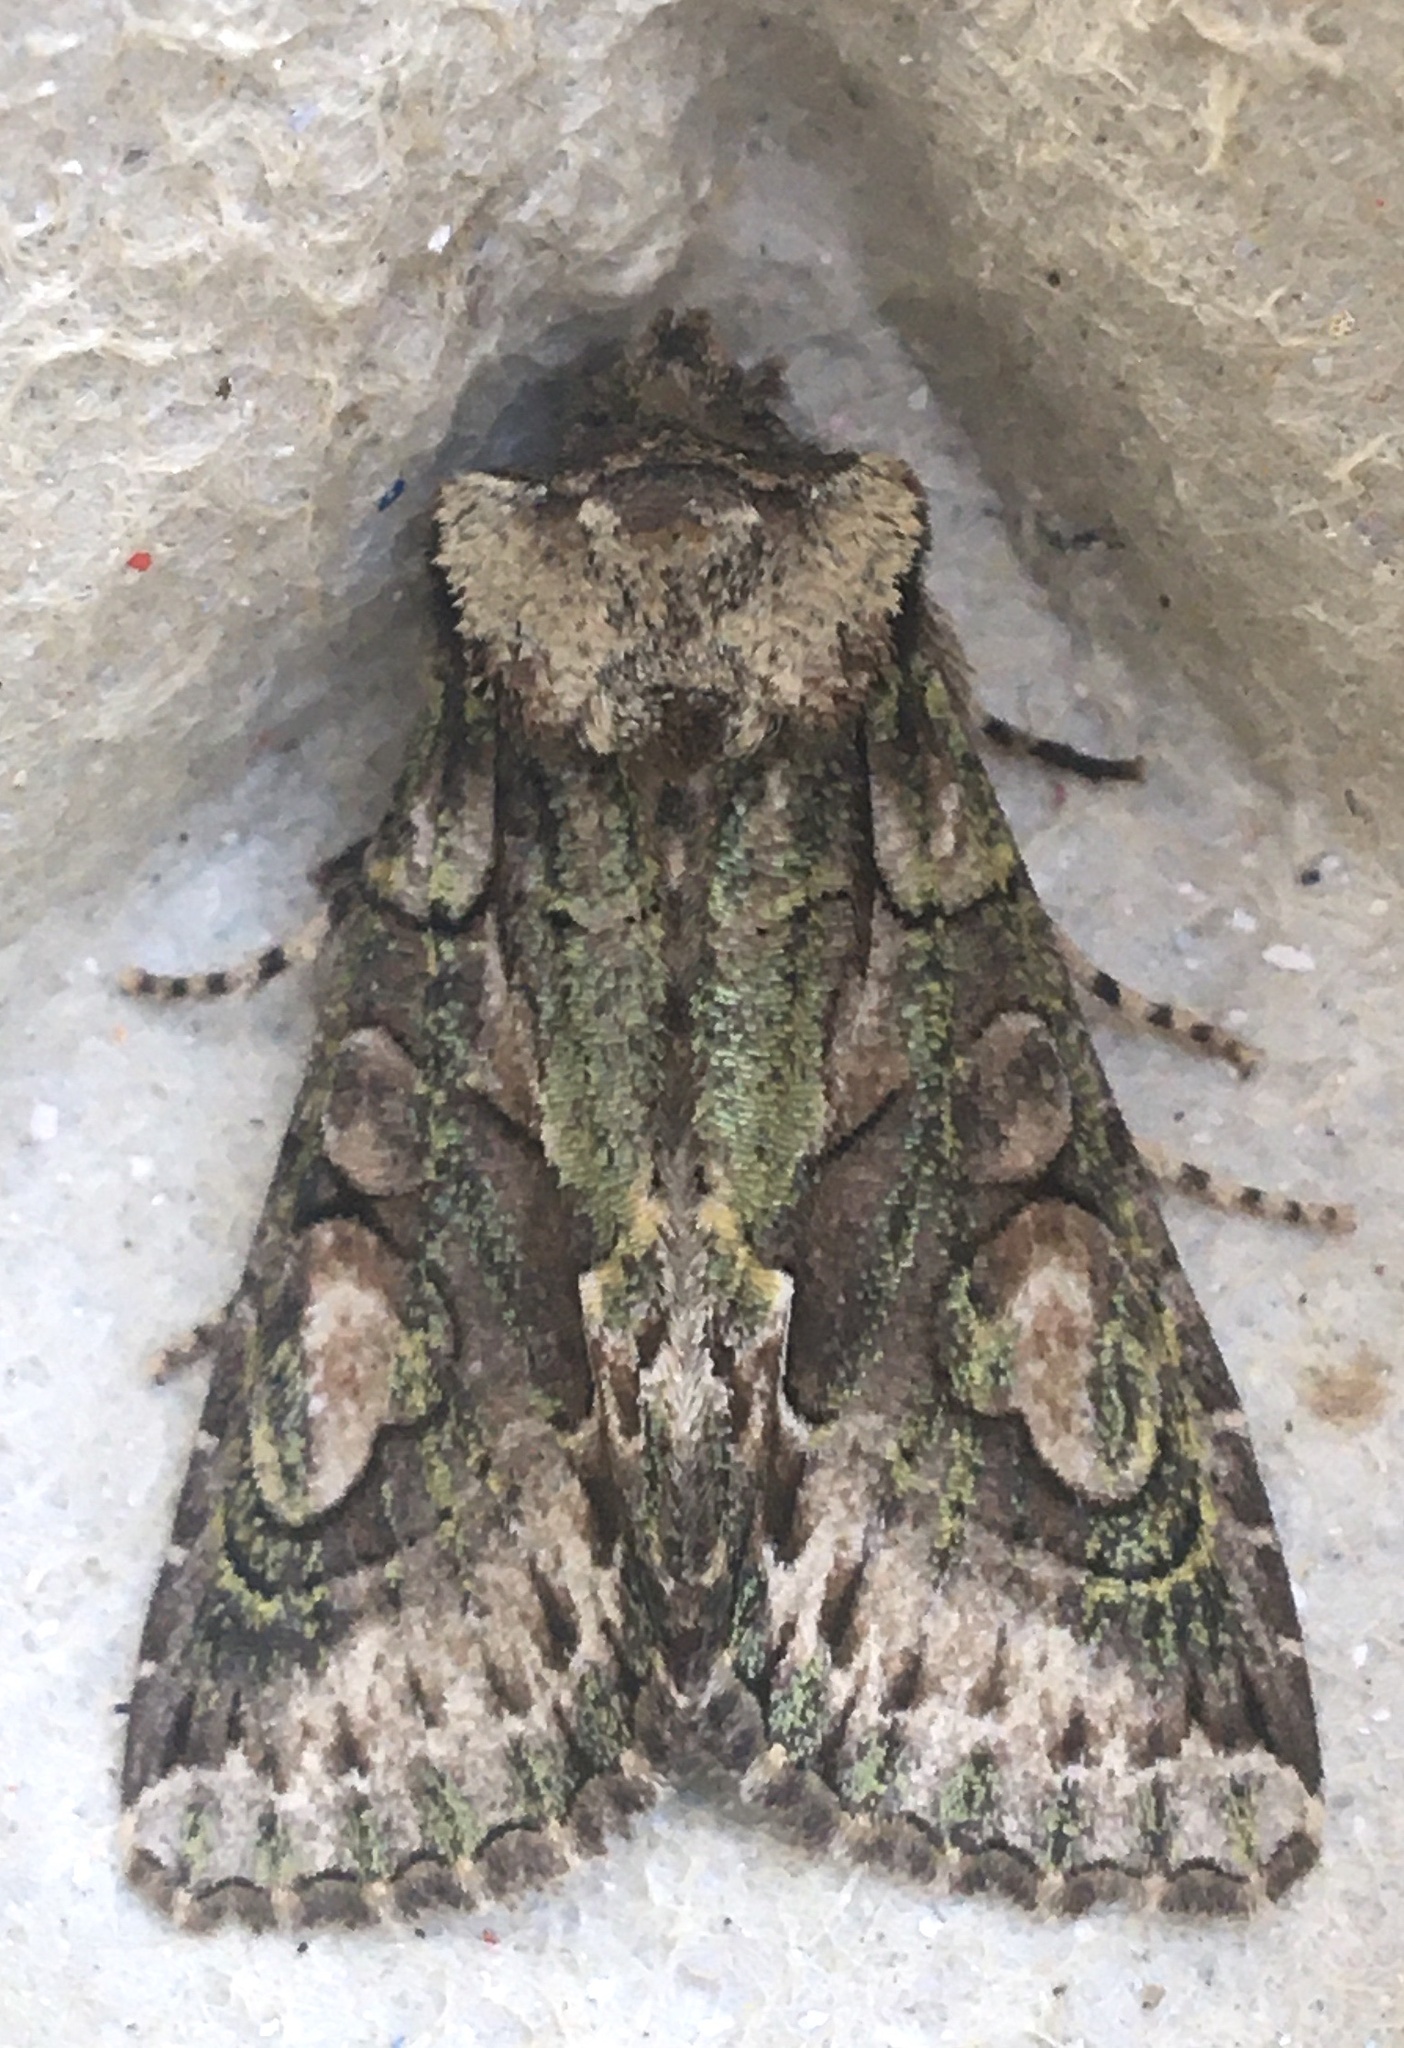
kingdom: Animalia
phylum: Arthropoda
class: Insecta
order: Lepidoptera
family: Noctuidae
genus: Allophyes
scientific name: Allophyes oxyacanthae
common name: Green-brindled crescent
